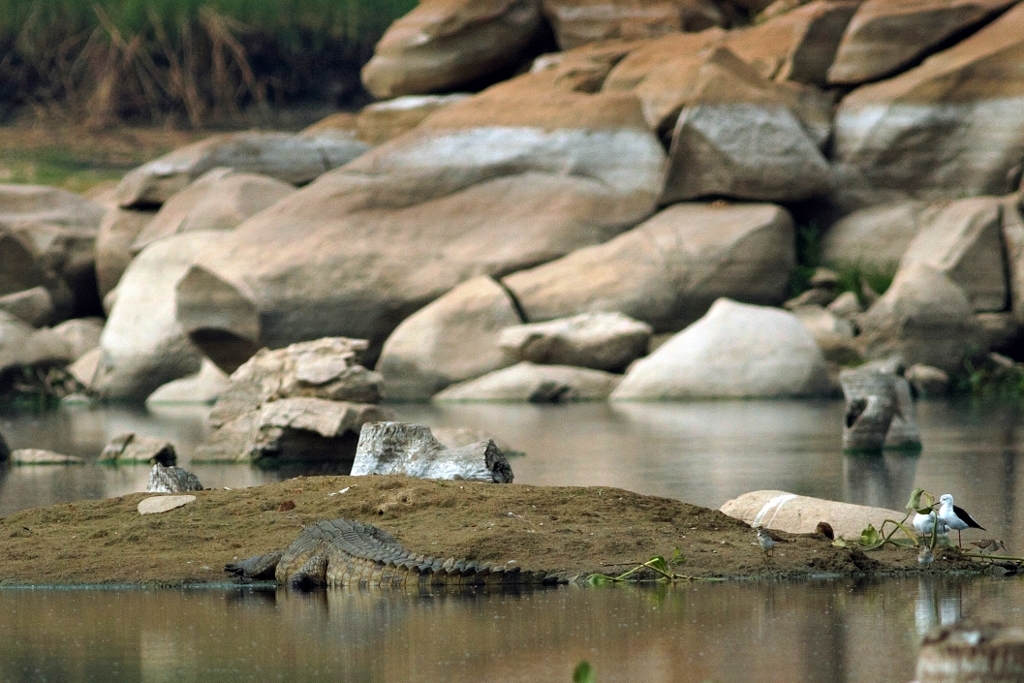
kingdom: Animalia
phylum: Chordata
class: Crocodylia
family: Crocodylidae
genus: Crocodylus
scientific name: Crocodylus niloticus
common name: Nile crocodile
